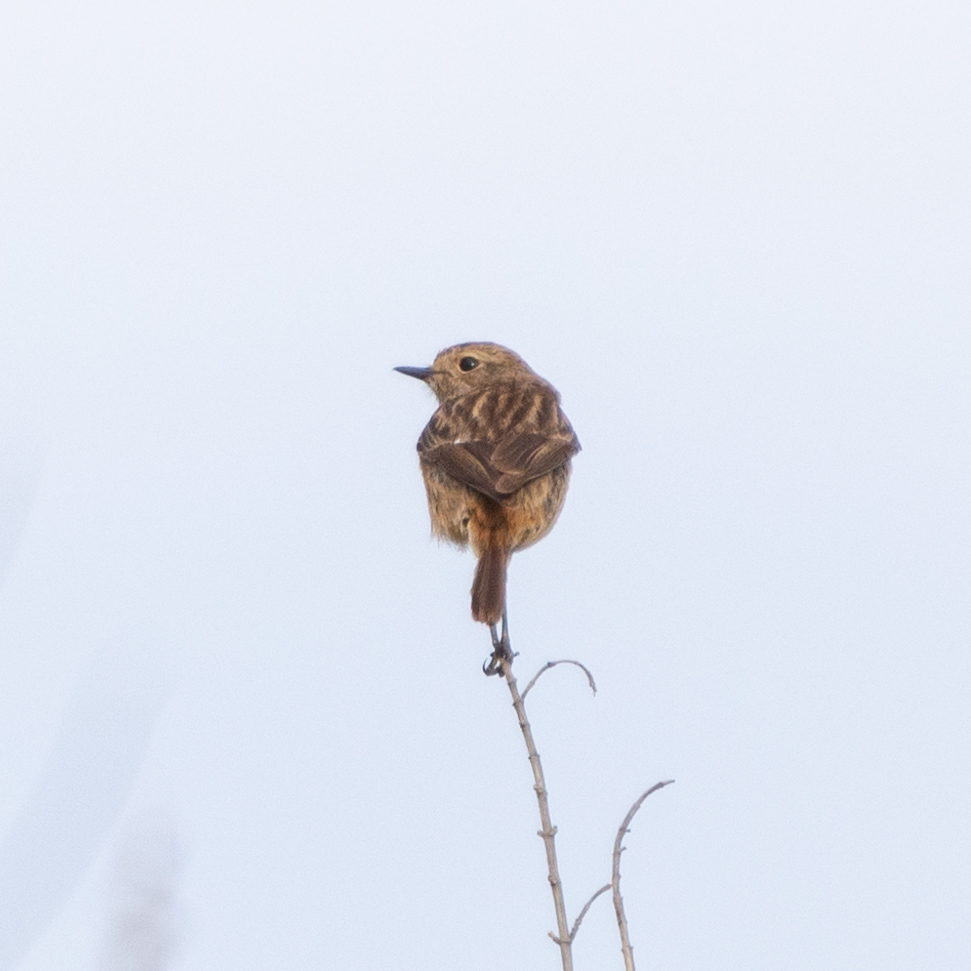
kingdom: Animalia
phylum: Chordata
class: Aves
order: Passeriformes
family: Muscicapidae
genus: Saxicola
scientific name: Saxicola rubicola
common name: European stonechat
